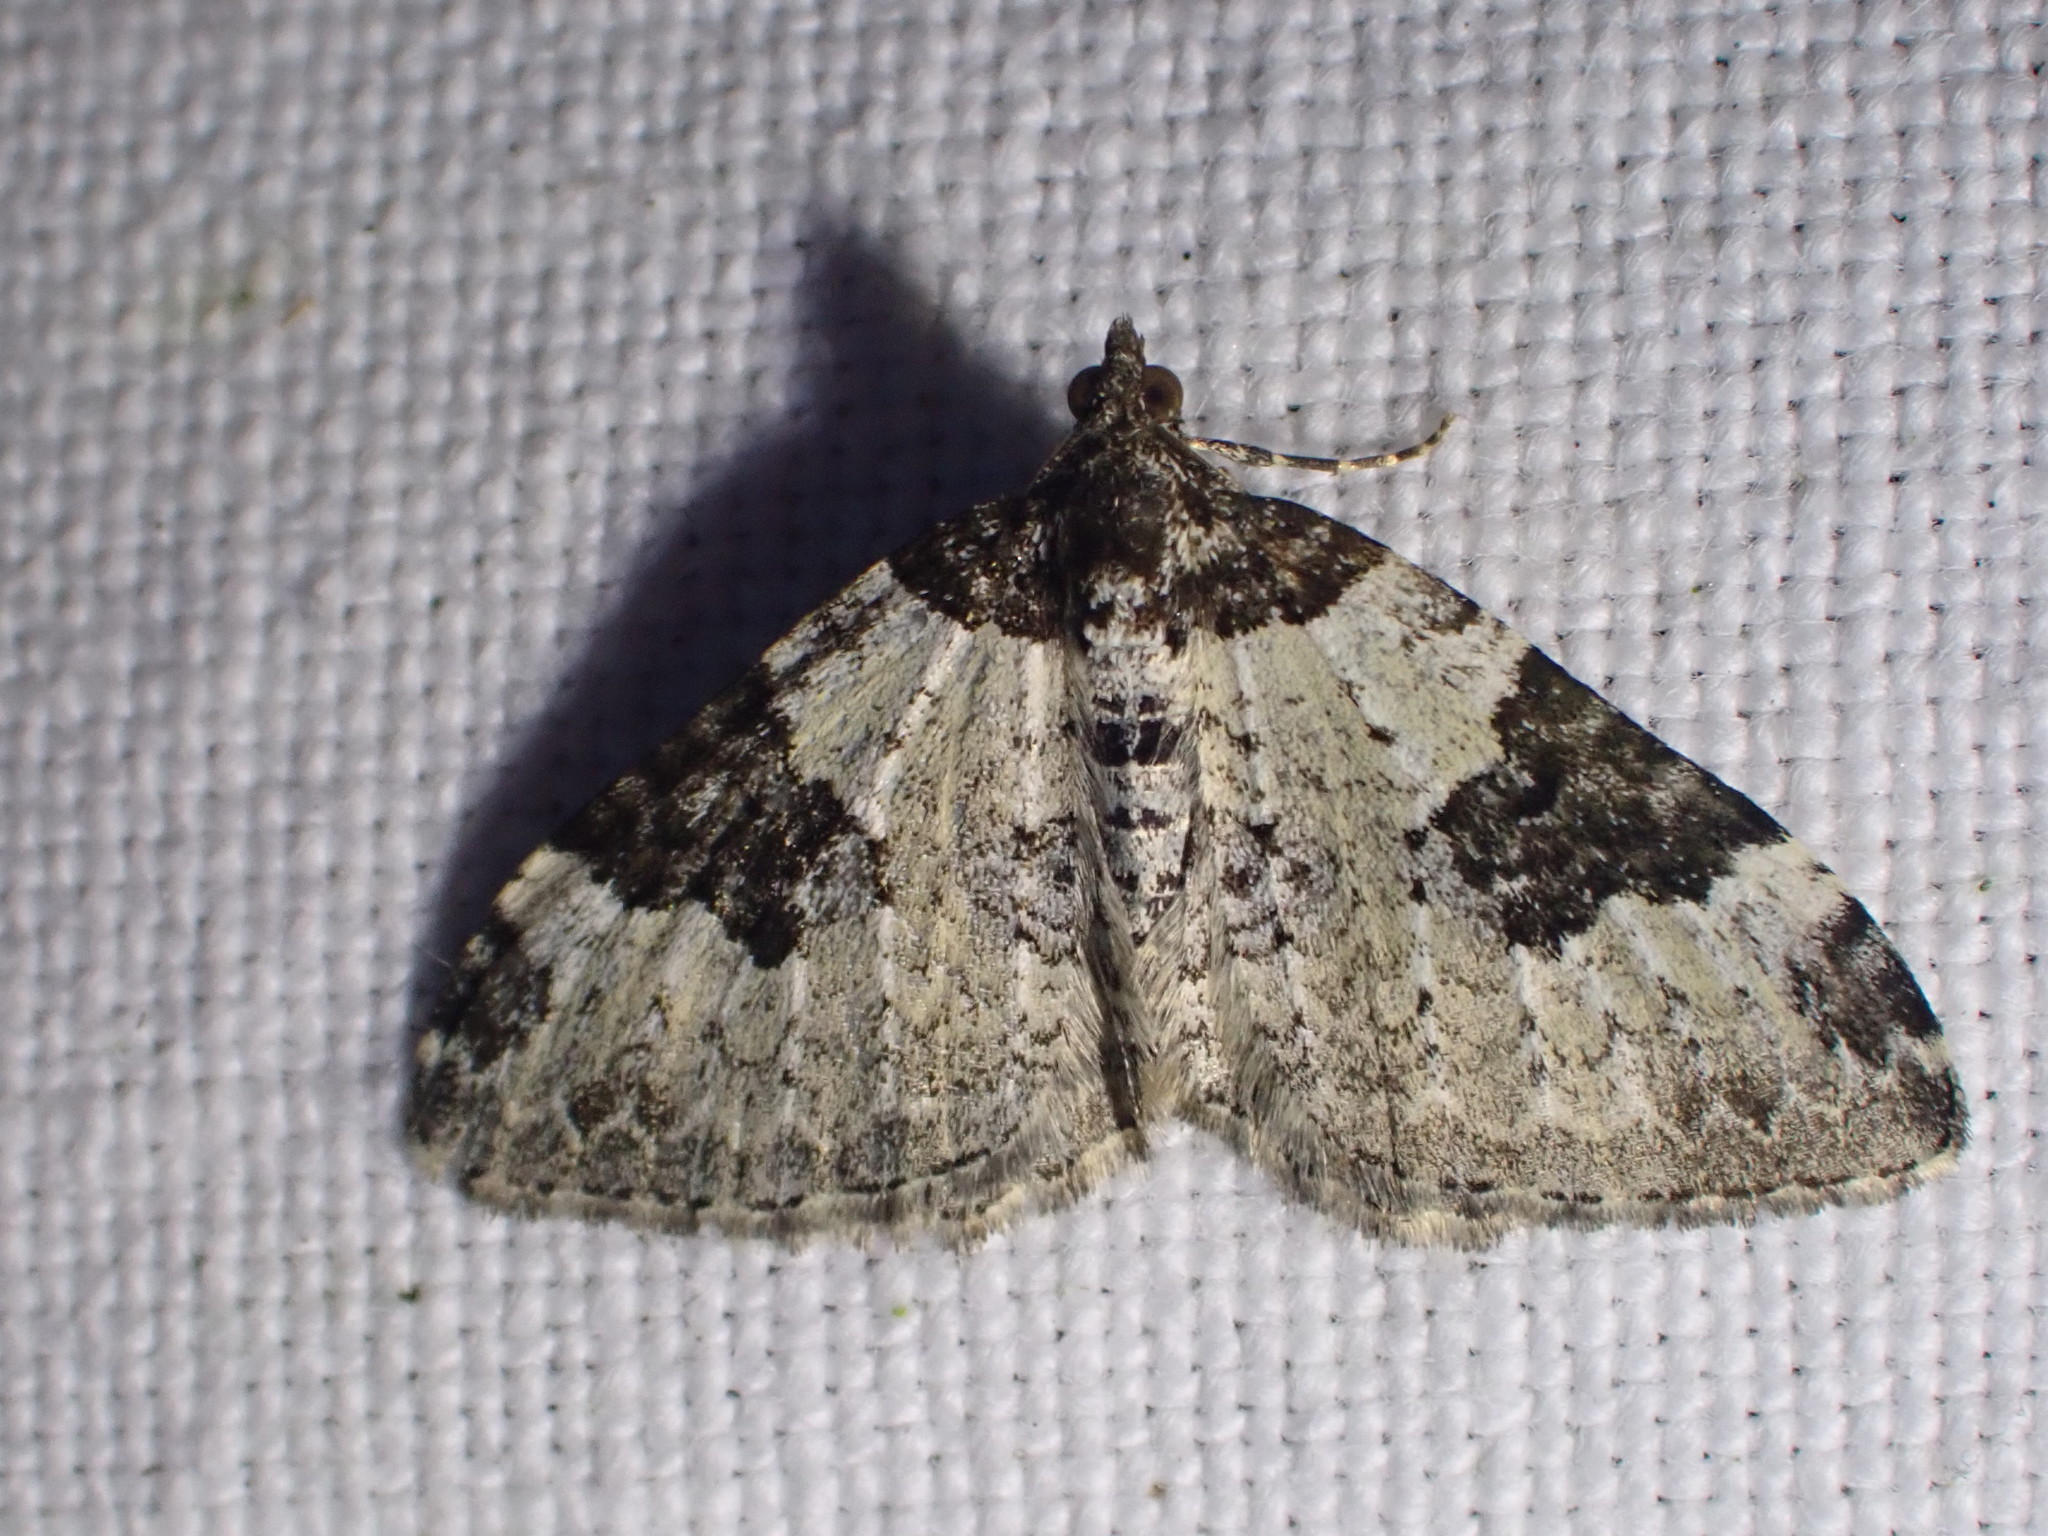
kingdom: Animalia
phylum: Arthropoda
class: Insecta
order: Lepidoptera
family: Geometridae
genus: Xanthorhoe
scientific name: Xanthorhoe fluctuata
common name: Garden carpet
